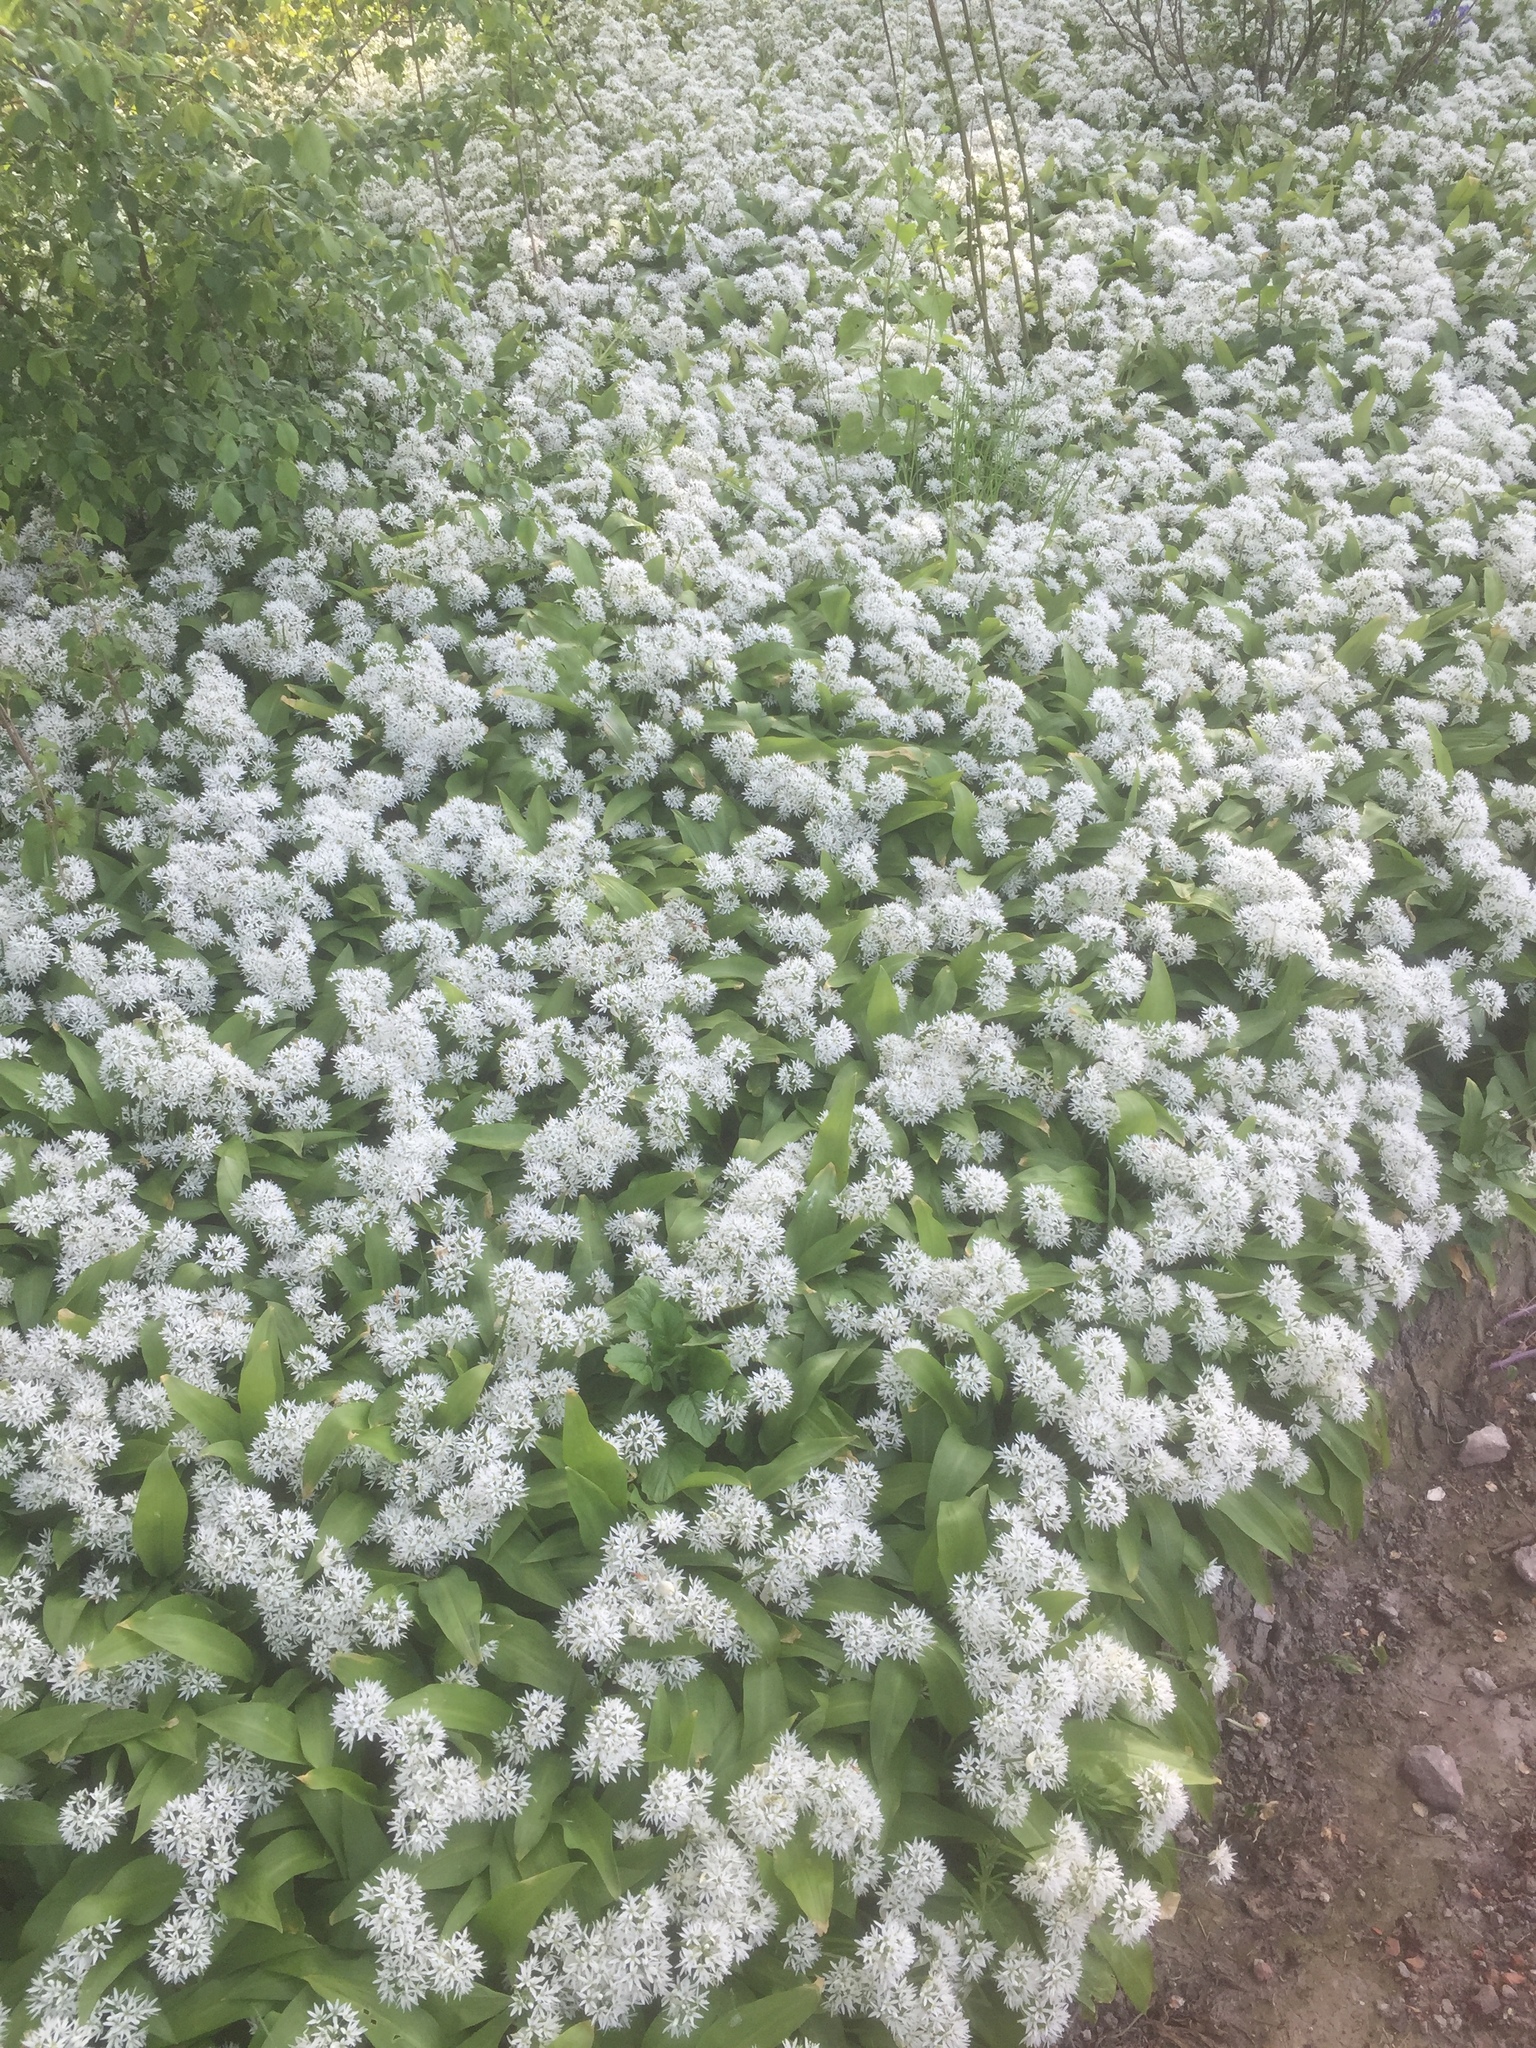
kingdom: Plantae
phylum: Tracheophyta
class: Liliopsida
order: Asparagales
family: Amaryllidaceae
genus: Allium
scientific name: Allium ursinum
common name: Ramsons
